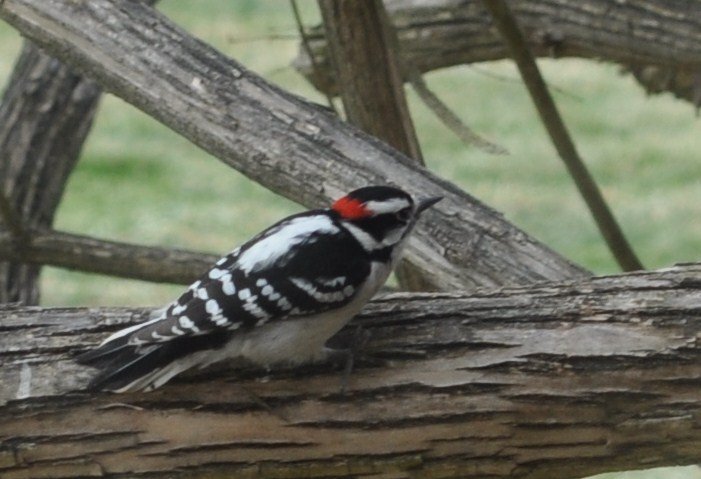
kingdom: Animalia
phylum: Chordata
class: Aves
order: Piciformes
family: Picidae
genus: Dryobates
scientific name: Dryobates pubescens
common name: Downy woodpecker
